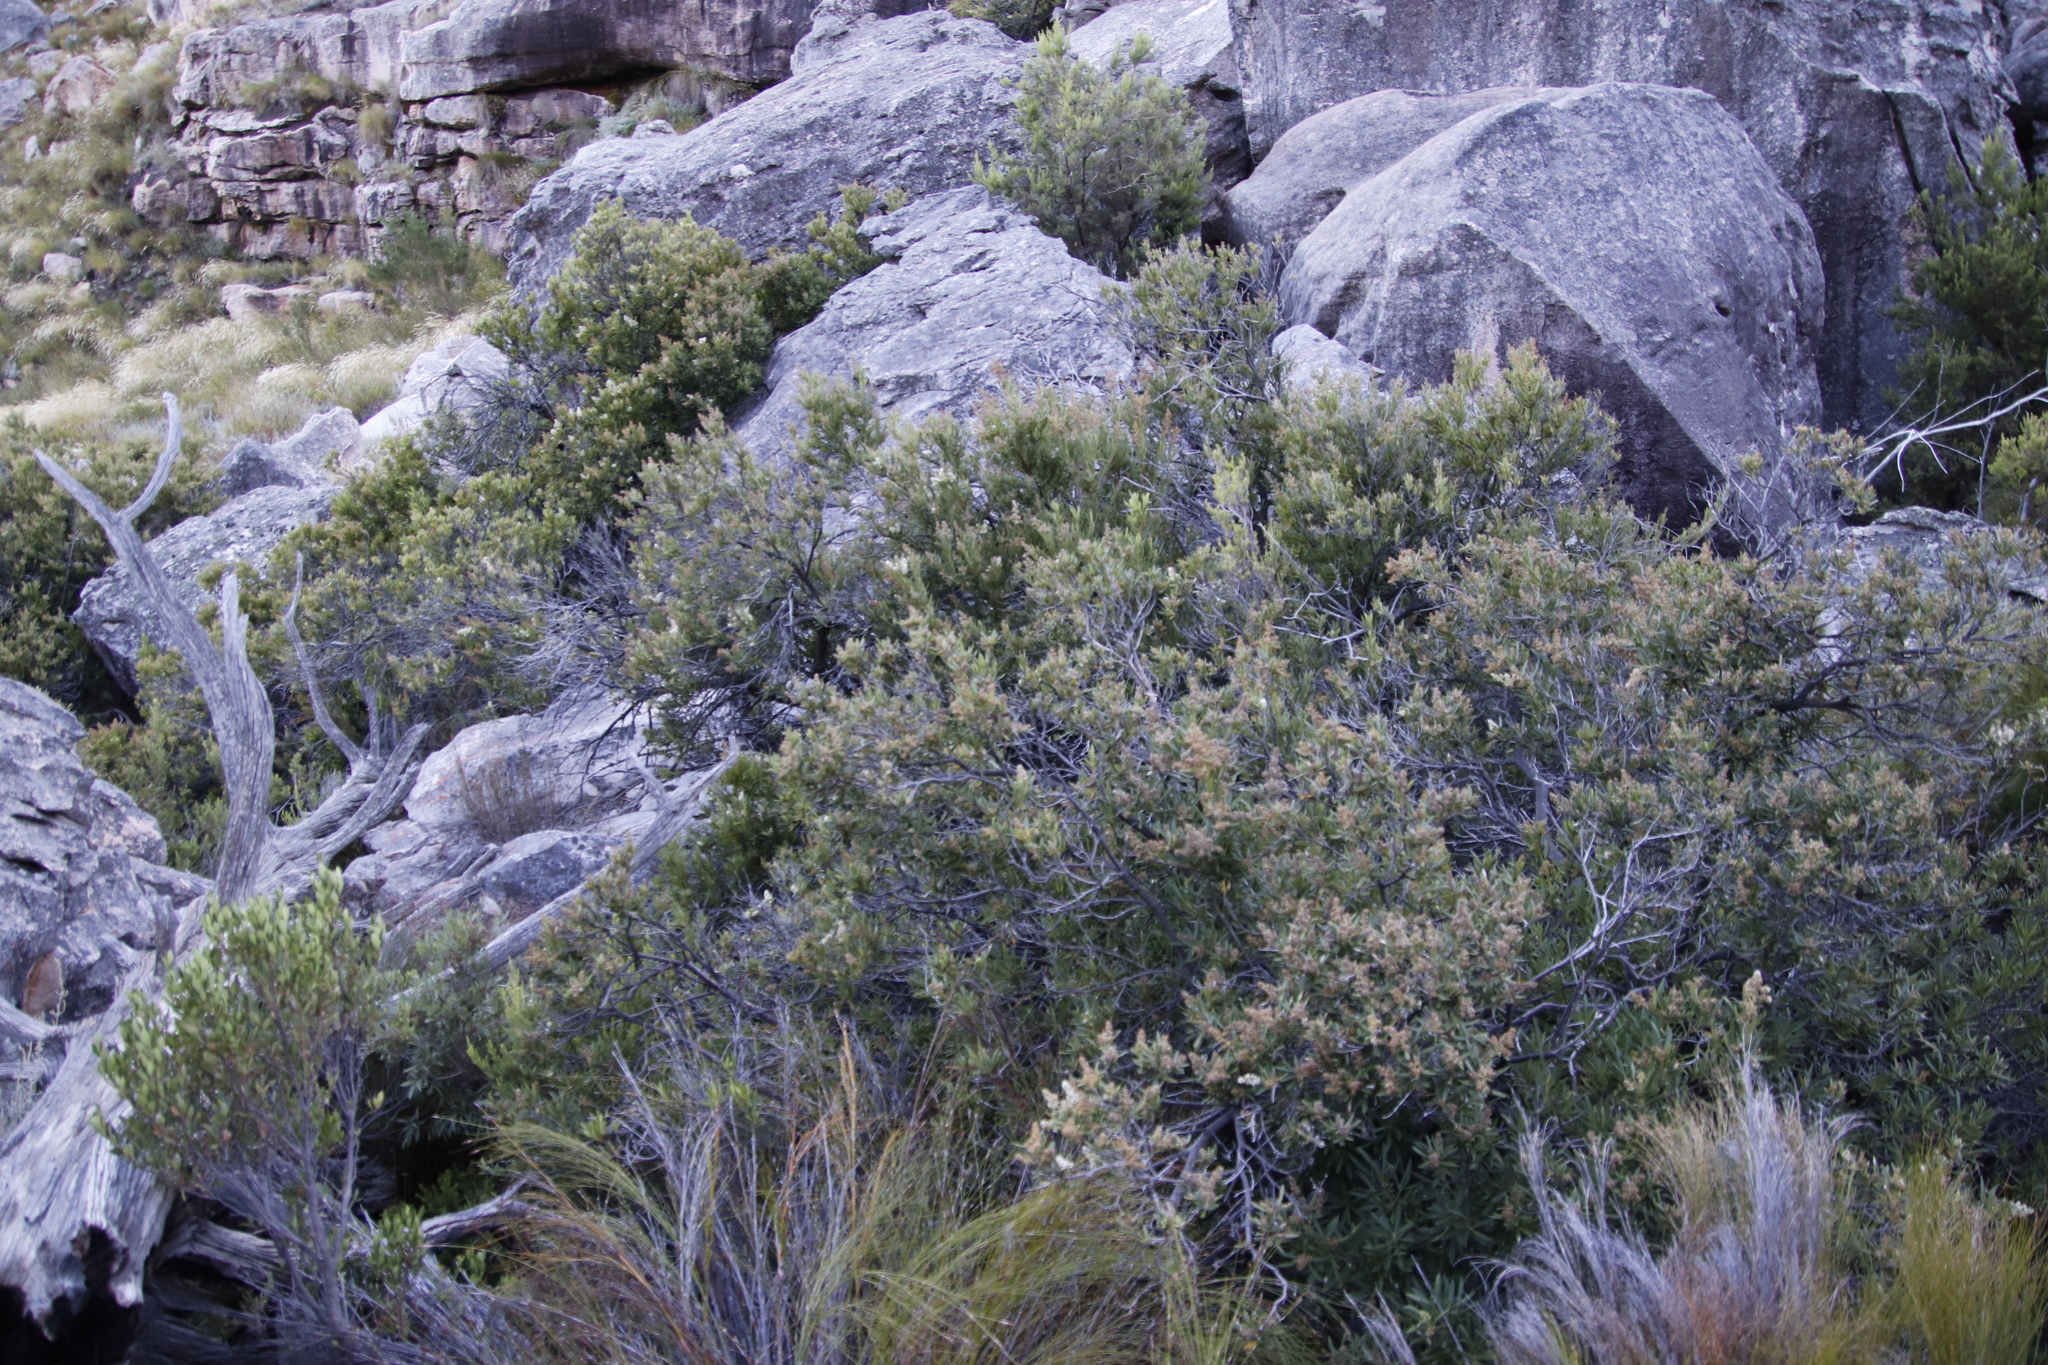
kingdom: Plantae
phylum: Tracheophyta
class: Magnoliopsida
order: Asterales
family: Asteraceae
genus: Brachylaena
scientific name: Brachylaena neriifolia
